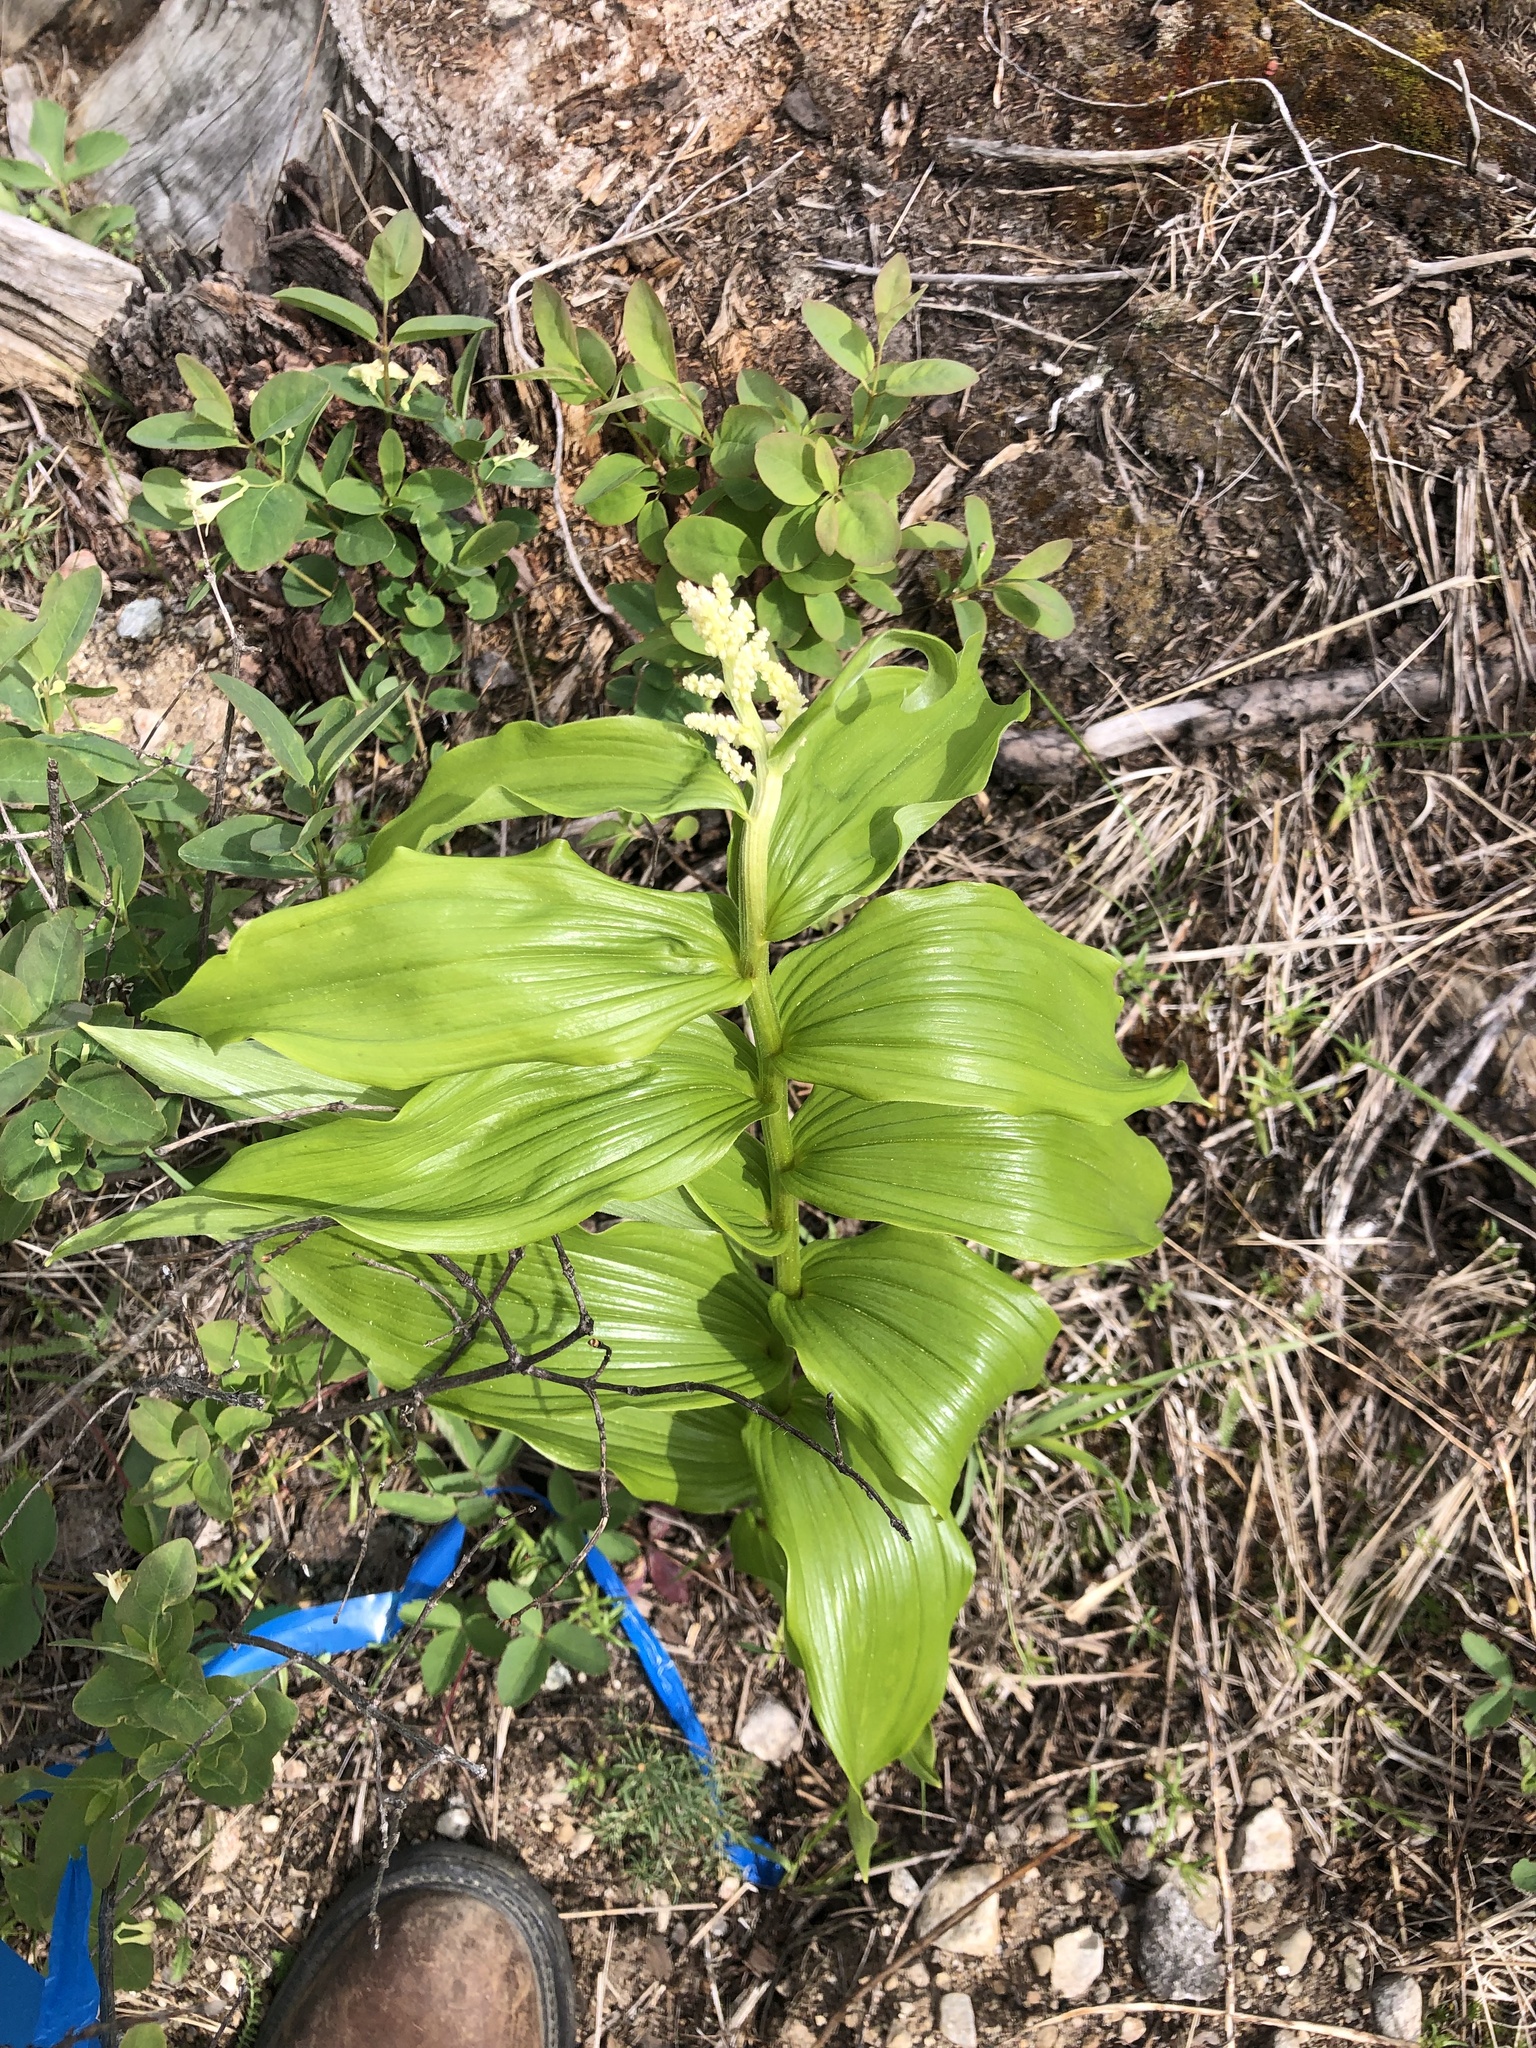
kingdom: Plantae
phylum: Tracheophyta
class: Liliopsida
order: Asparagales
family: Asparagaceae
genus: Maianthemum
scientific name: Maianthemum racemosum
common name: False spikenard
